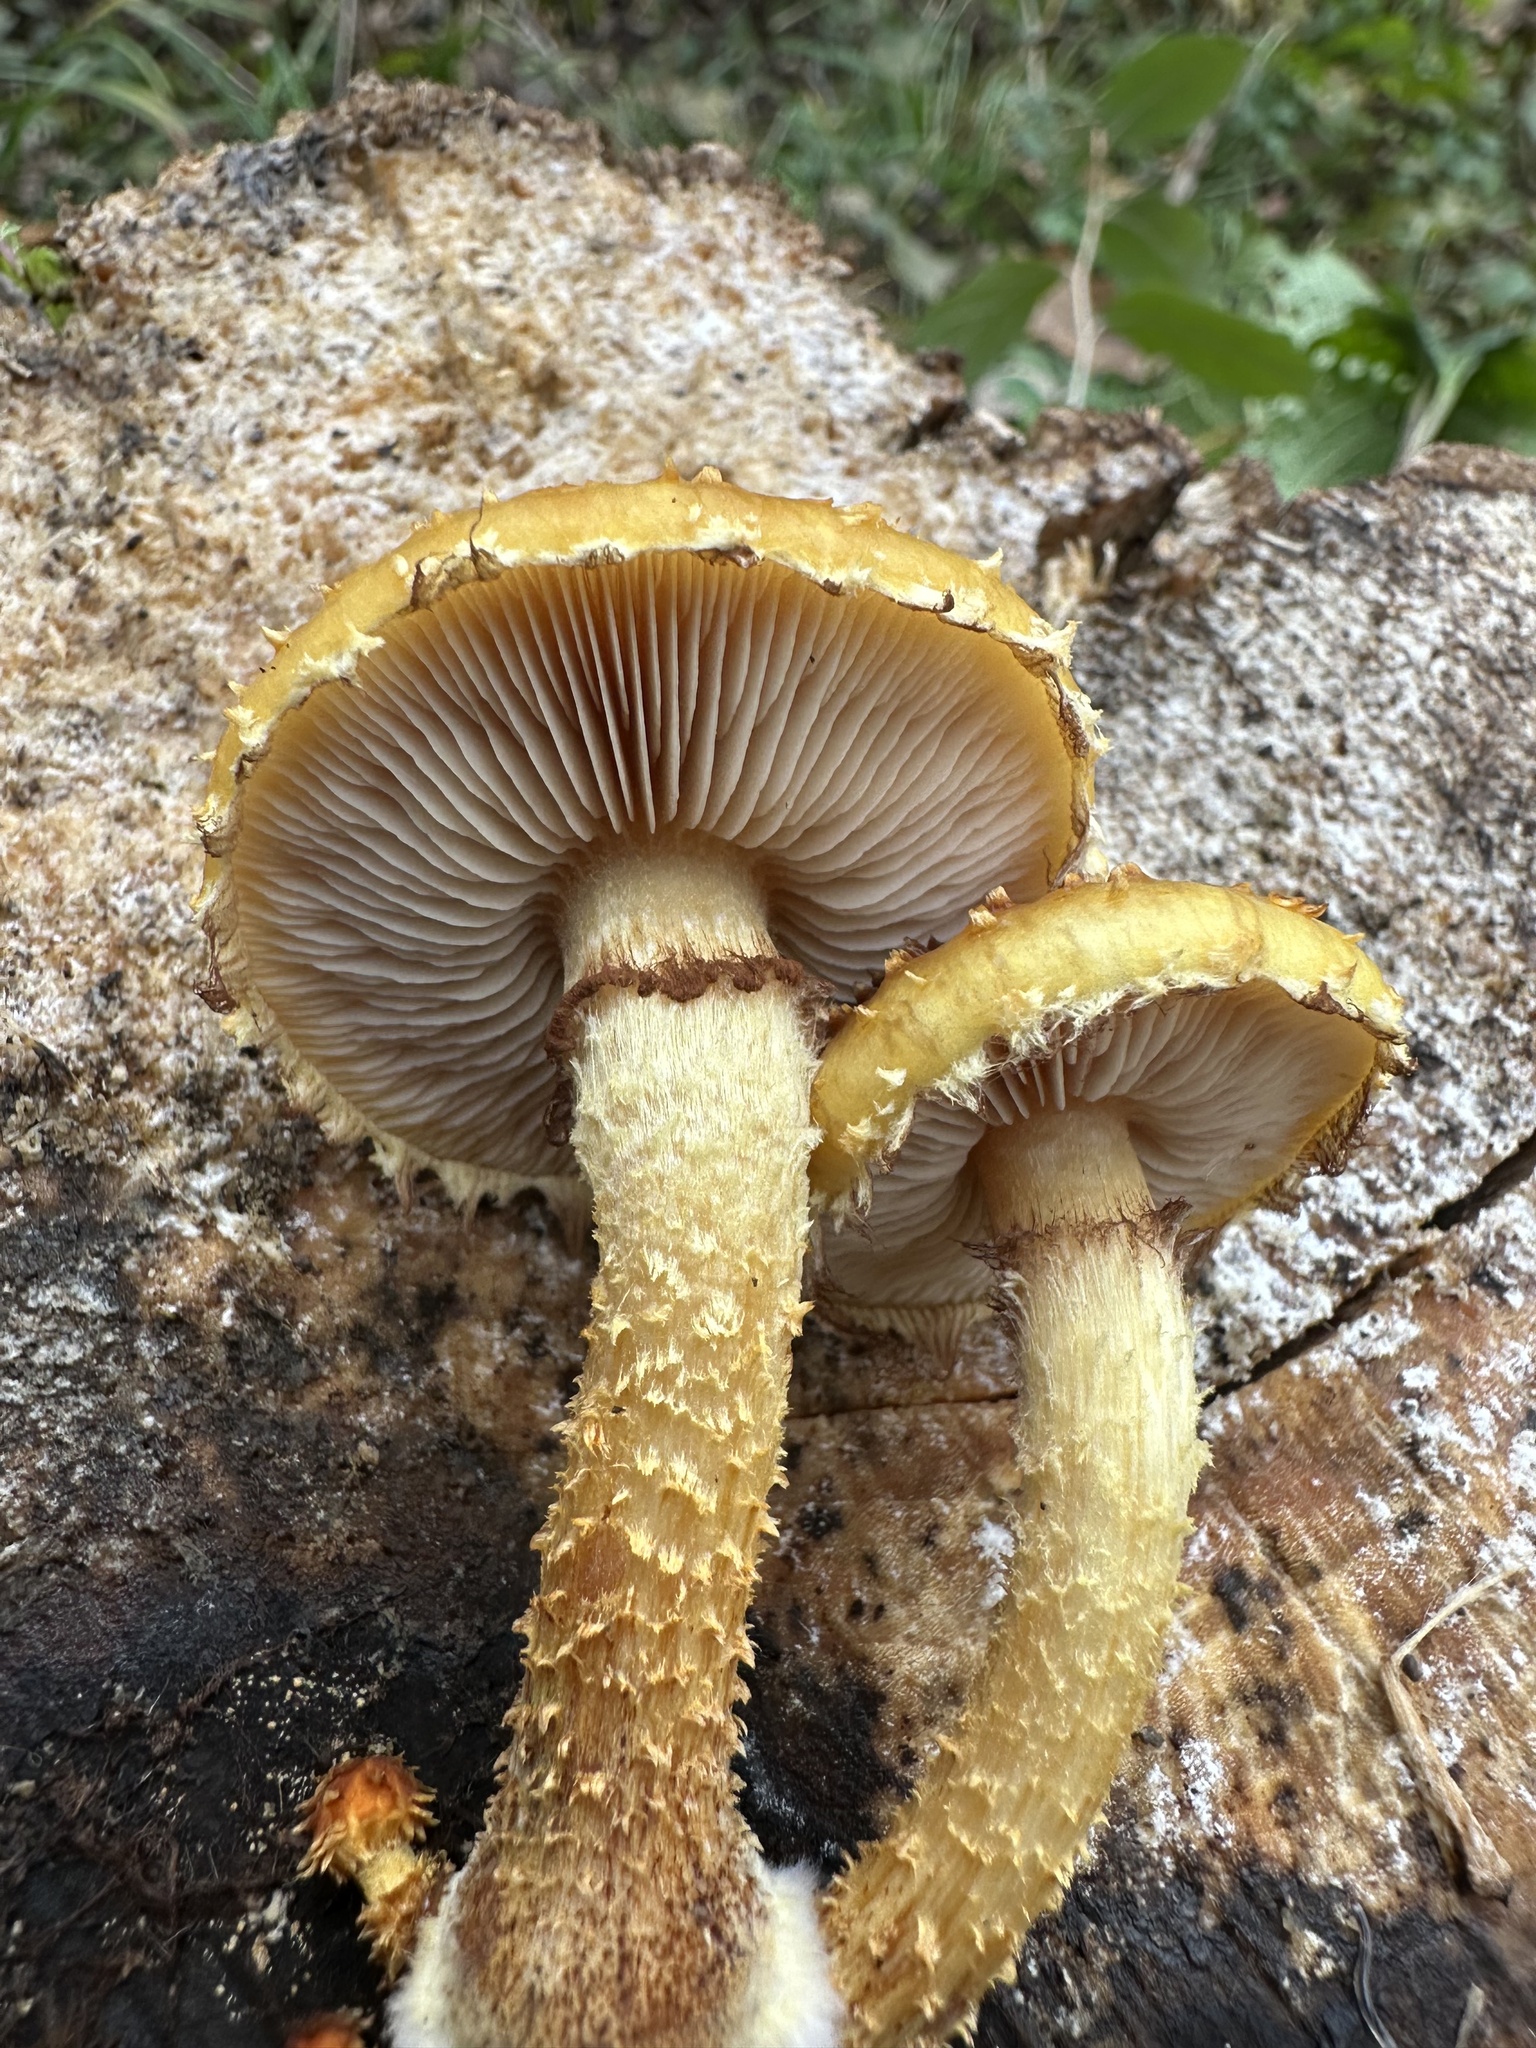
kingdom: Fungi
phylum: Basidiomycota
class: Agaricomycetes
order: Agaricales
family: Strophariaceae
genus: Pholiota
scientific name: Pholiota aurivella
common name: Golden scalycap
